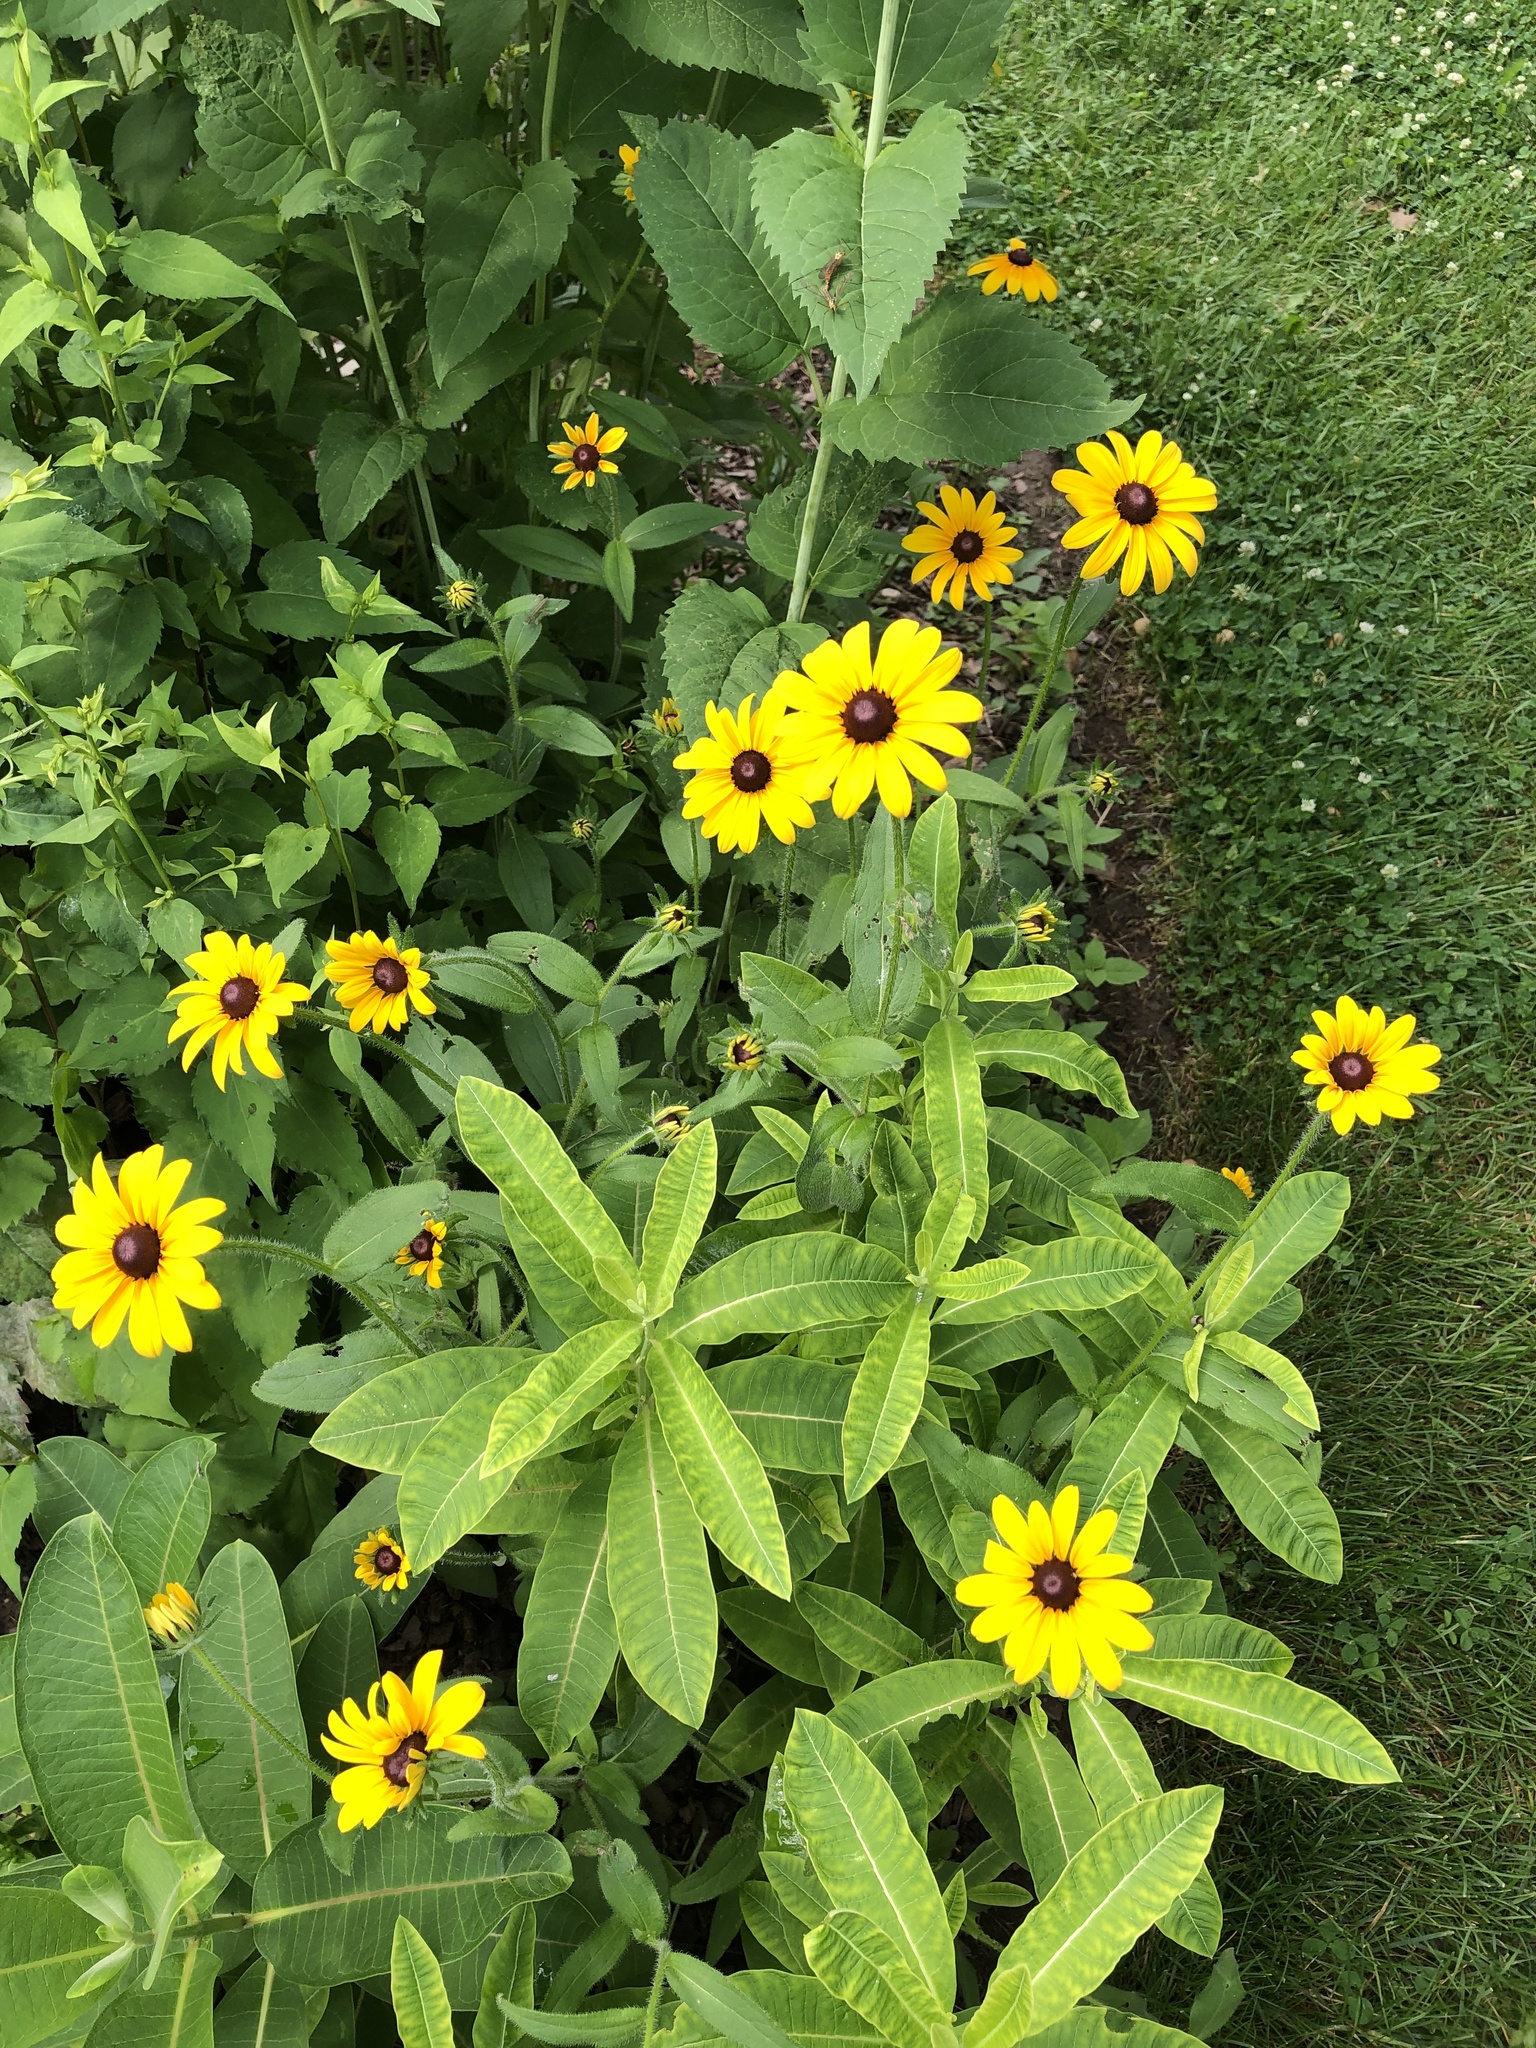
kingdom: Plantae
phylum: Tracheophyta
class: Magnoliopsida
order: Asterales
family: Asteraceae
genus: Rudbeckia
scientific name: Rudbeckia hirta
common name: Black-eyed-susan
